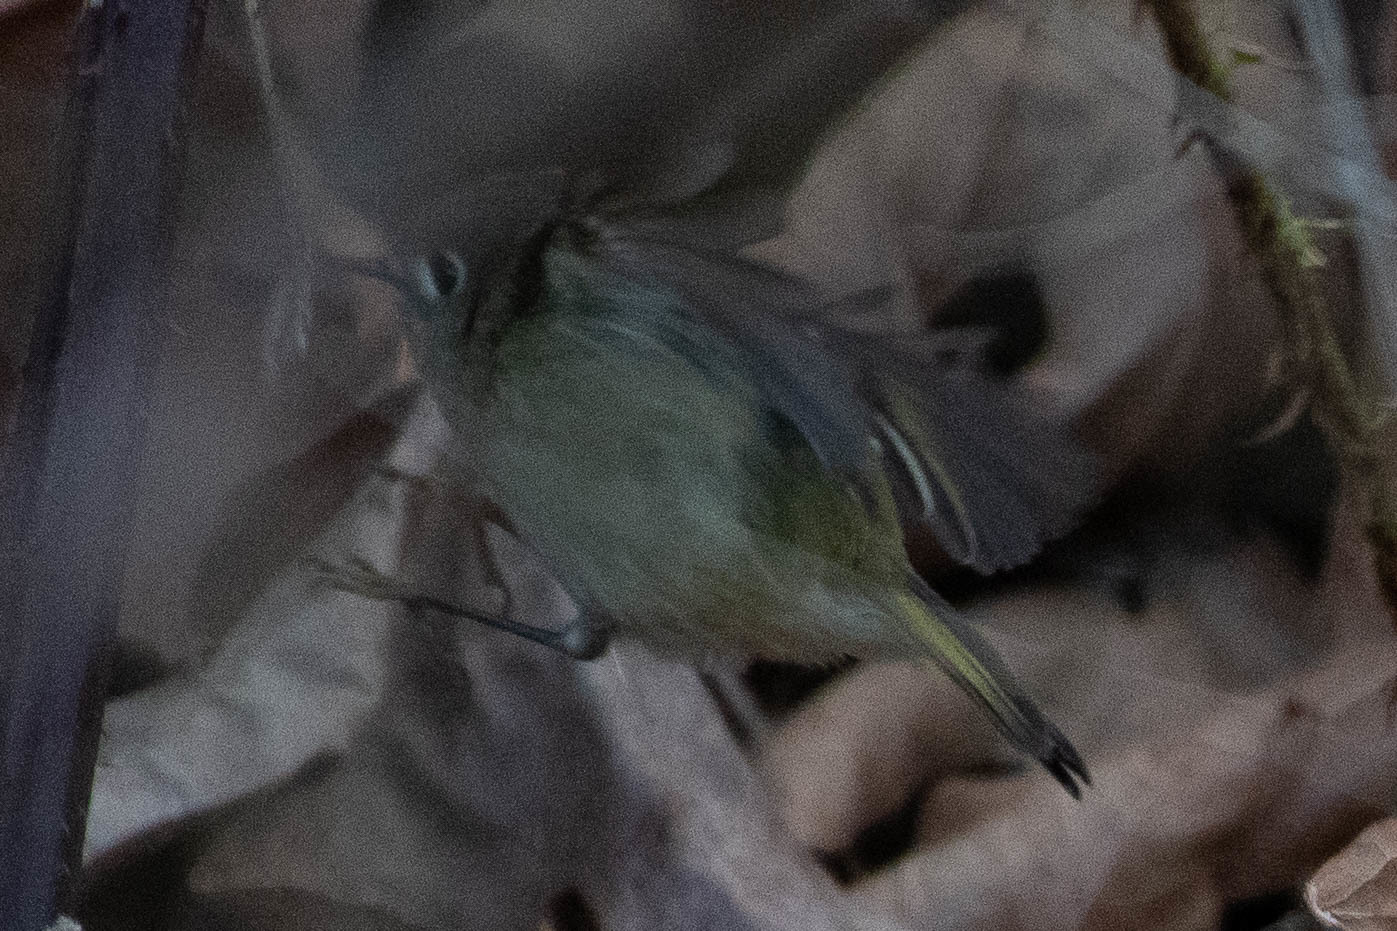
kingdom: Animalia
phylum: Chordata
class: Aves
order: Passeriformes
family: Regulidae
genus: Regulus
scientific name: Regulus calendula
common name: Ruby-crowned kinglet
